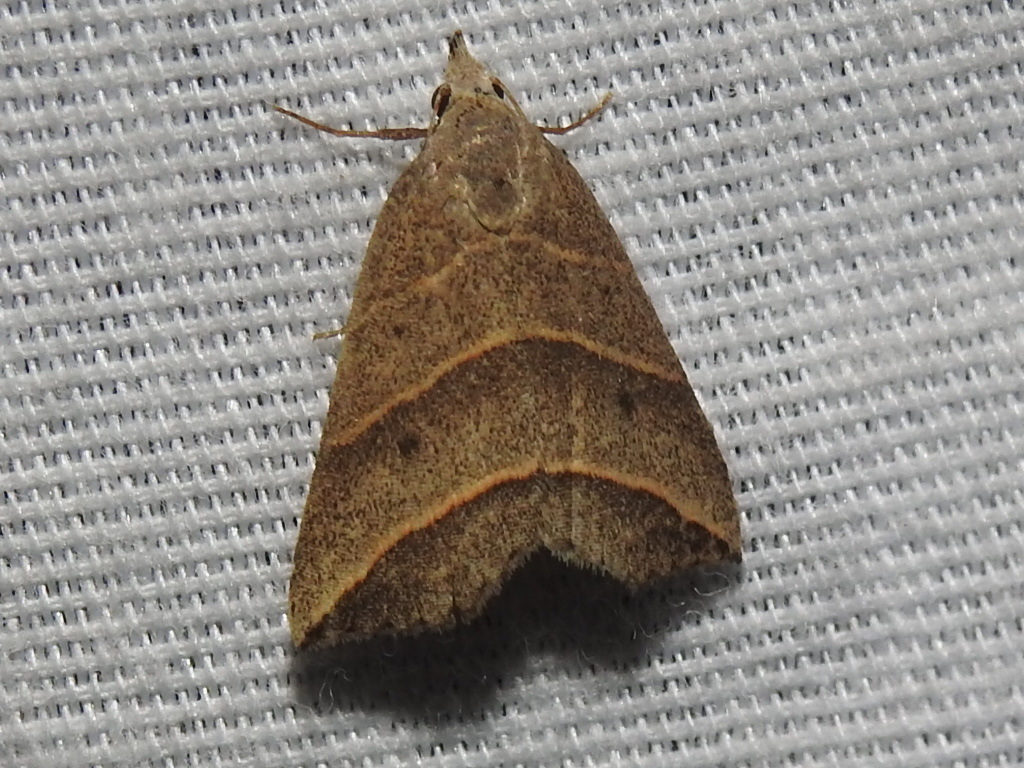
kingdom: Animalia
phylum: Arthropoda
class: Insecta
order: Lepidoptera
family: Erebidae
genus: Colobochyla
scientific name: Colobochyla interpuncta
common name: Yellow-lined owlet
